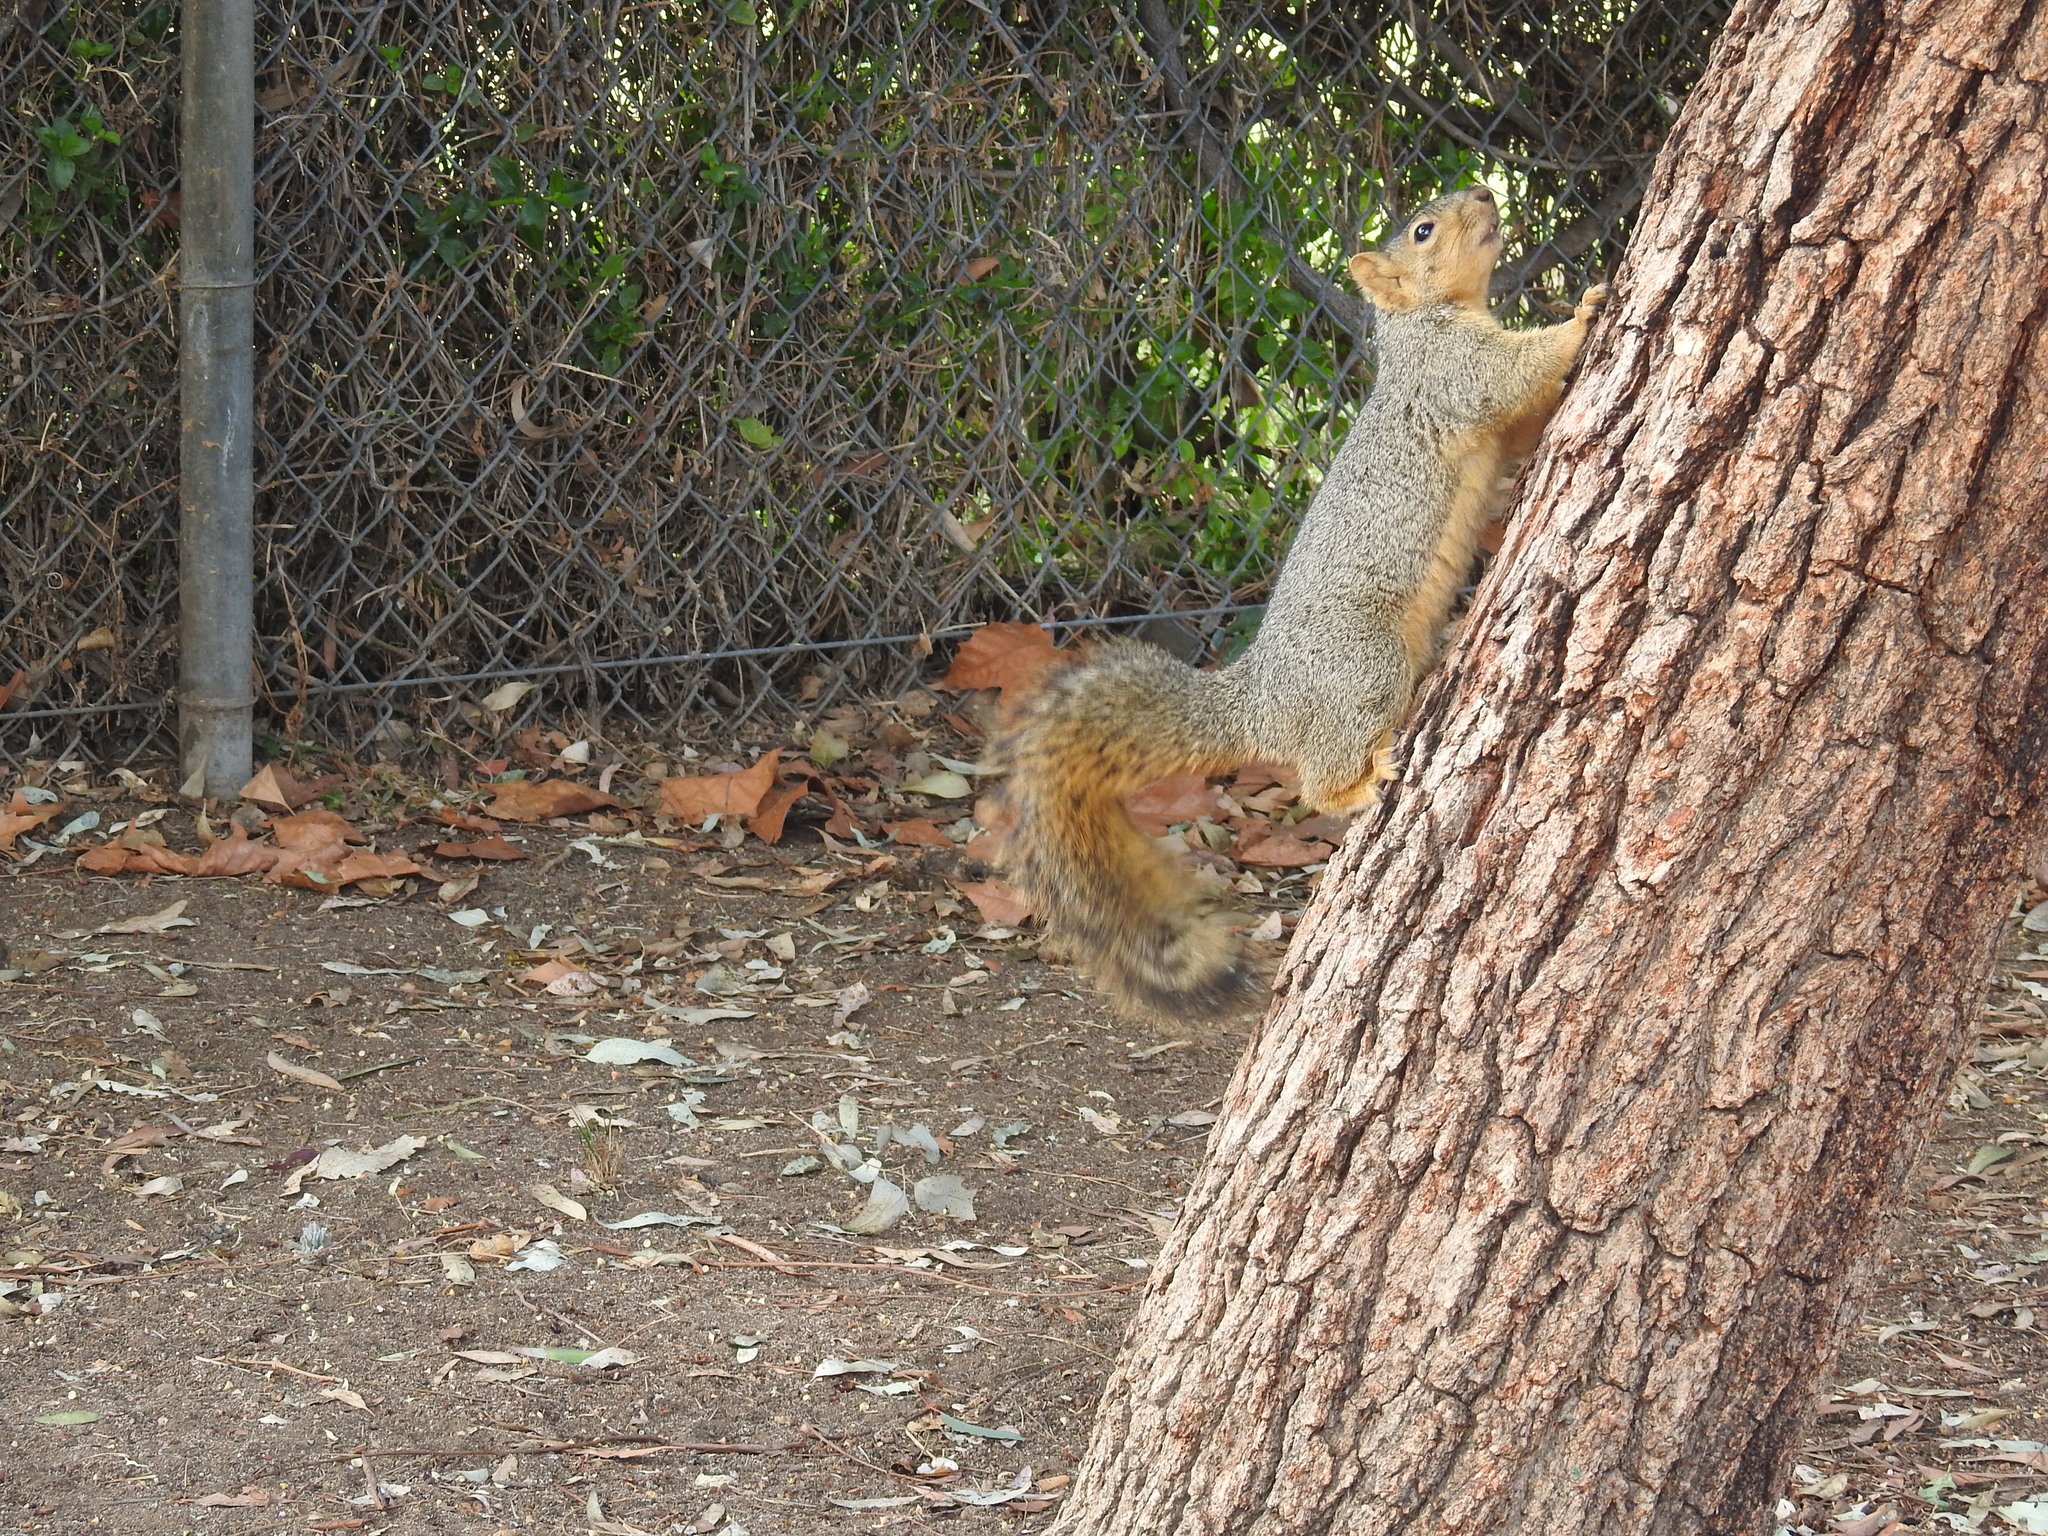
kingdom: Animalia
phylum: Chordata
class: Mammalia
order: Rodentia
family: Sciuridae
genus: Sciurus
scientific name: Sciurus niger
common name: Fox squirrel
